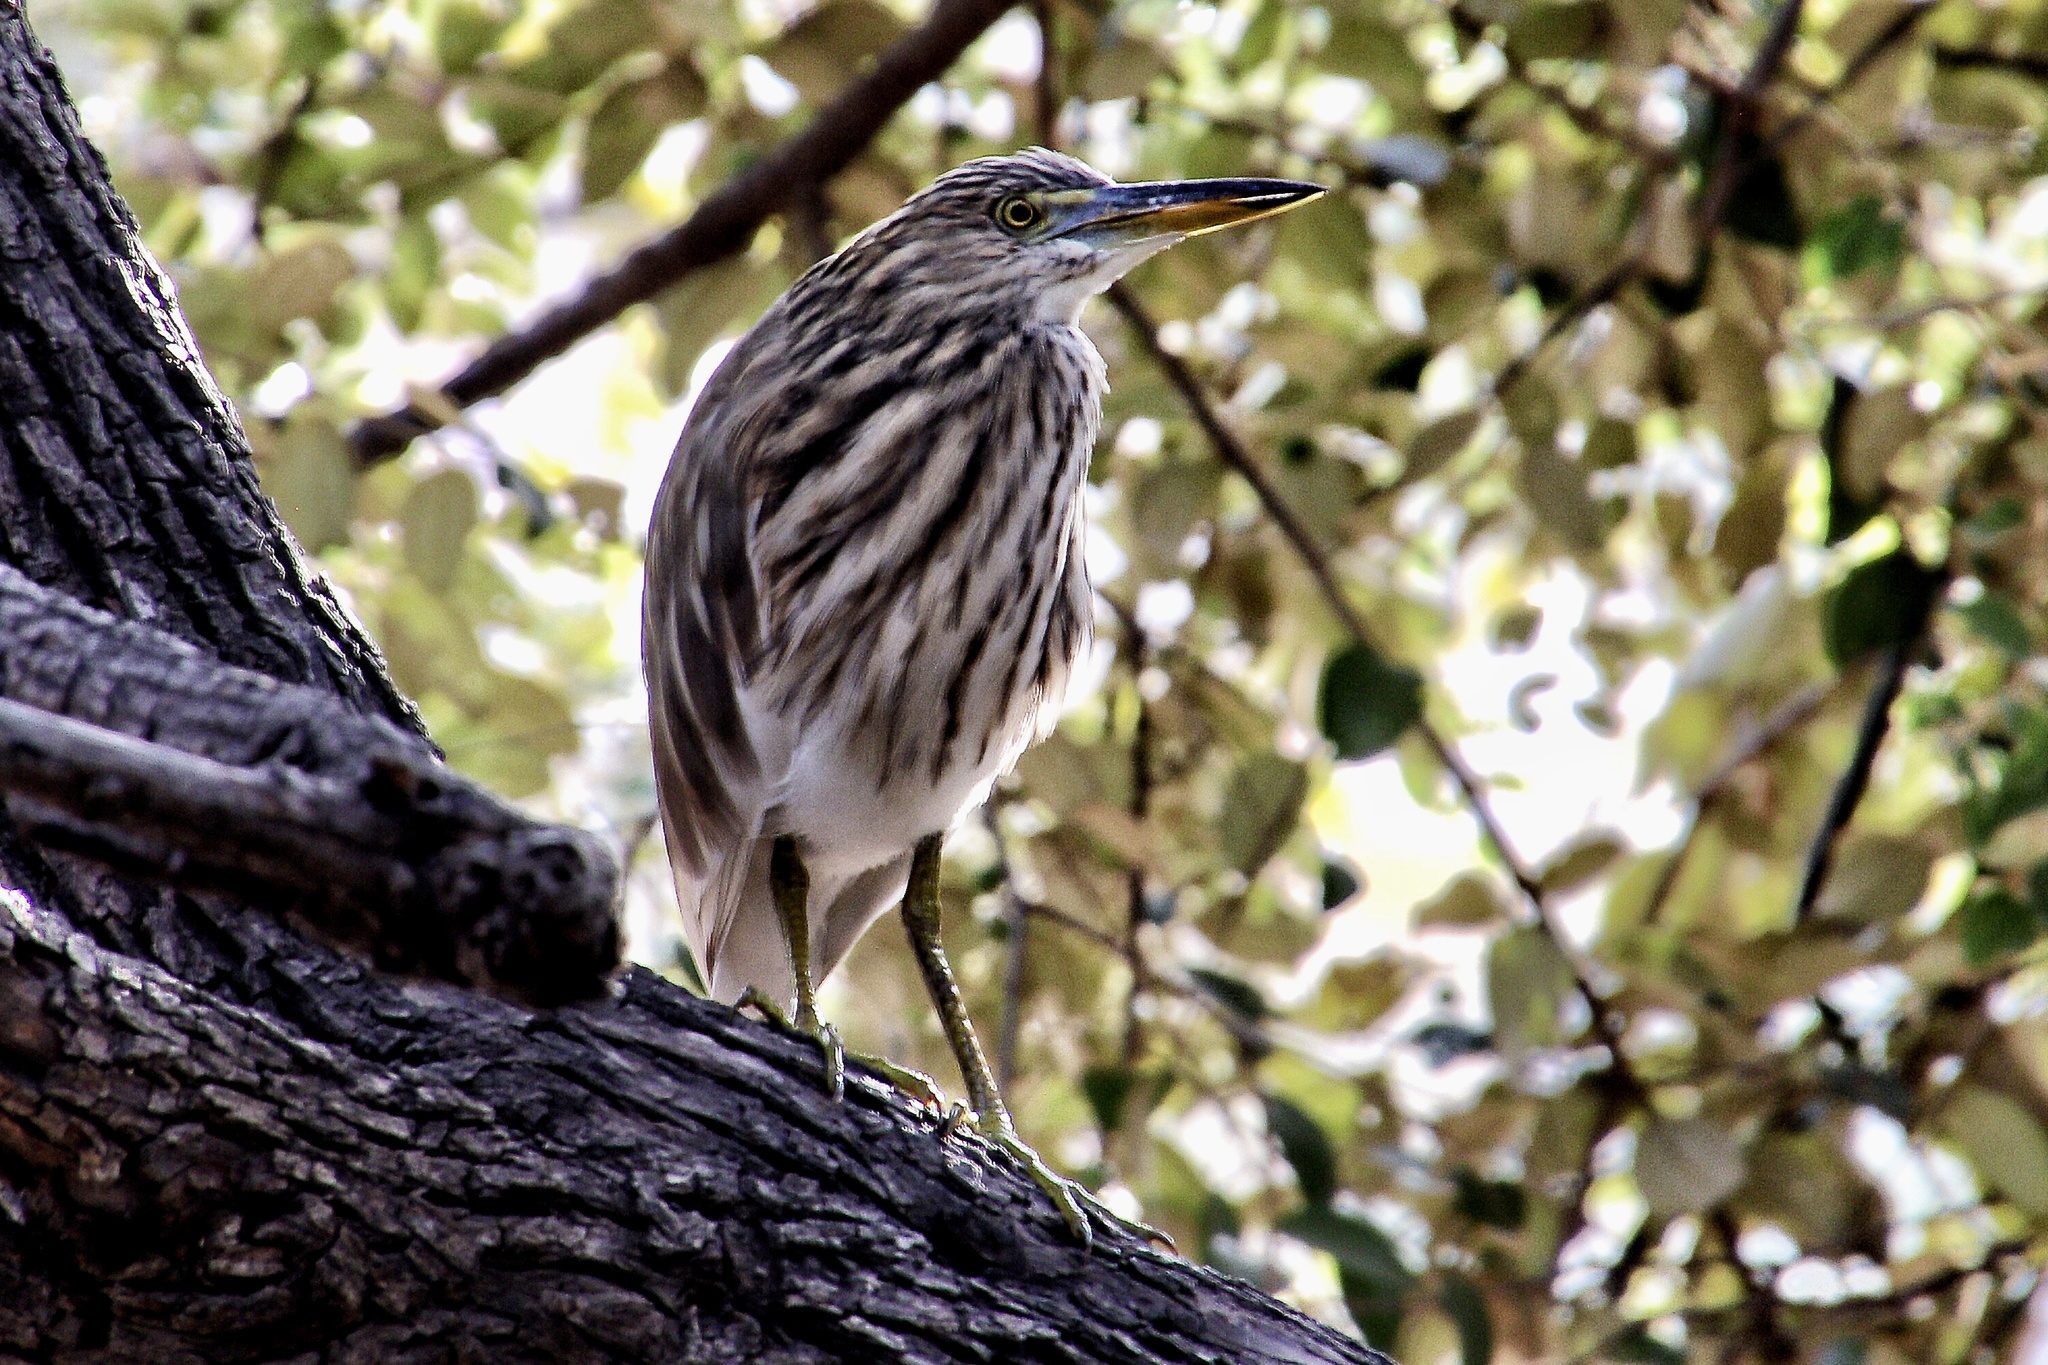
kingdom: Animalia
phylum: Chordata
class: Aves
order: Pelecaniformes
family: Ardeidae
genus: Ardeola
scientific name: Ardeola grayii
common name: Indian pond heron
